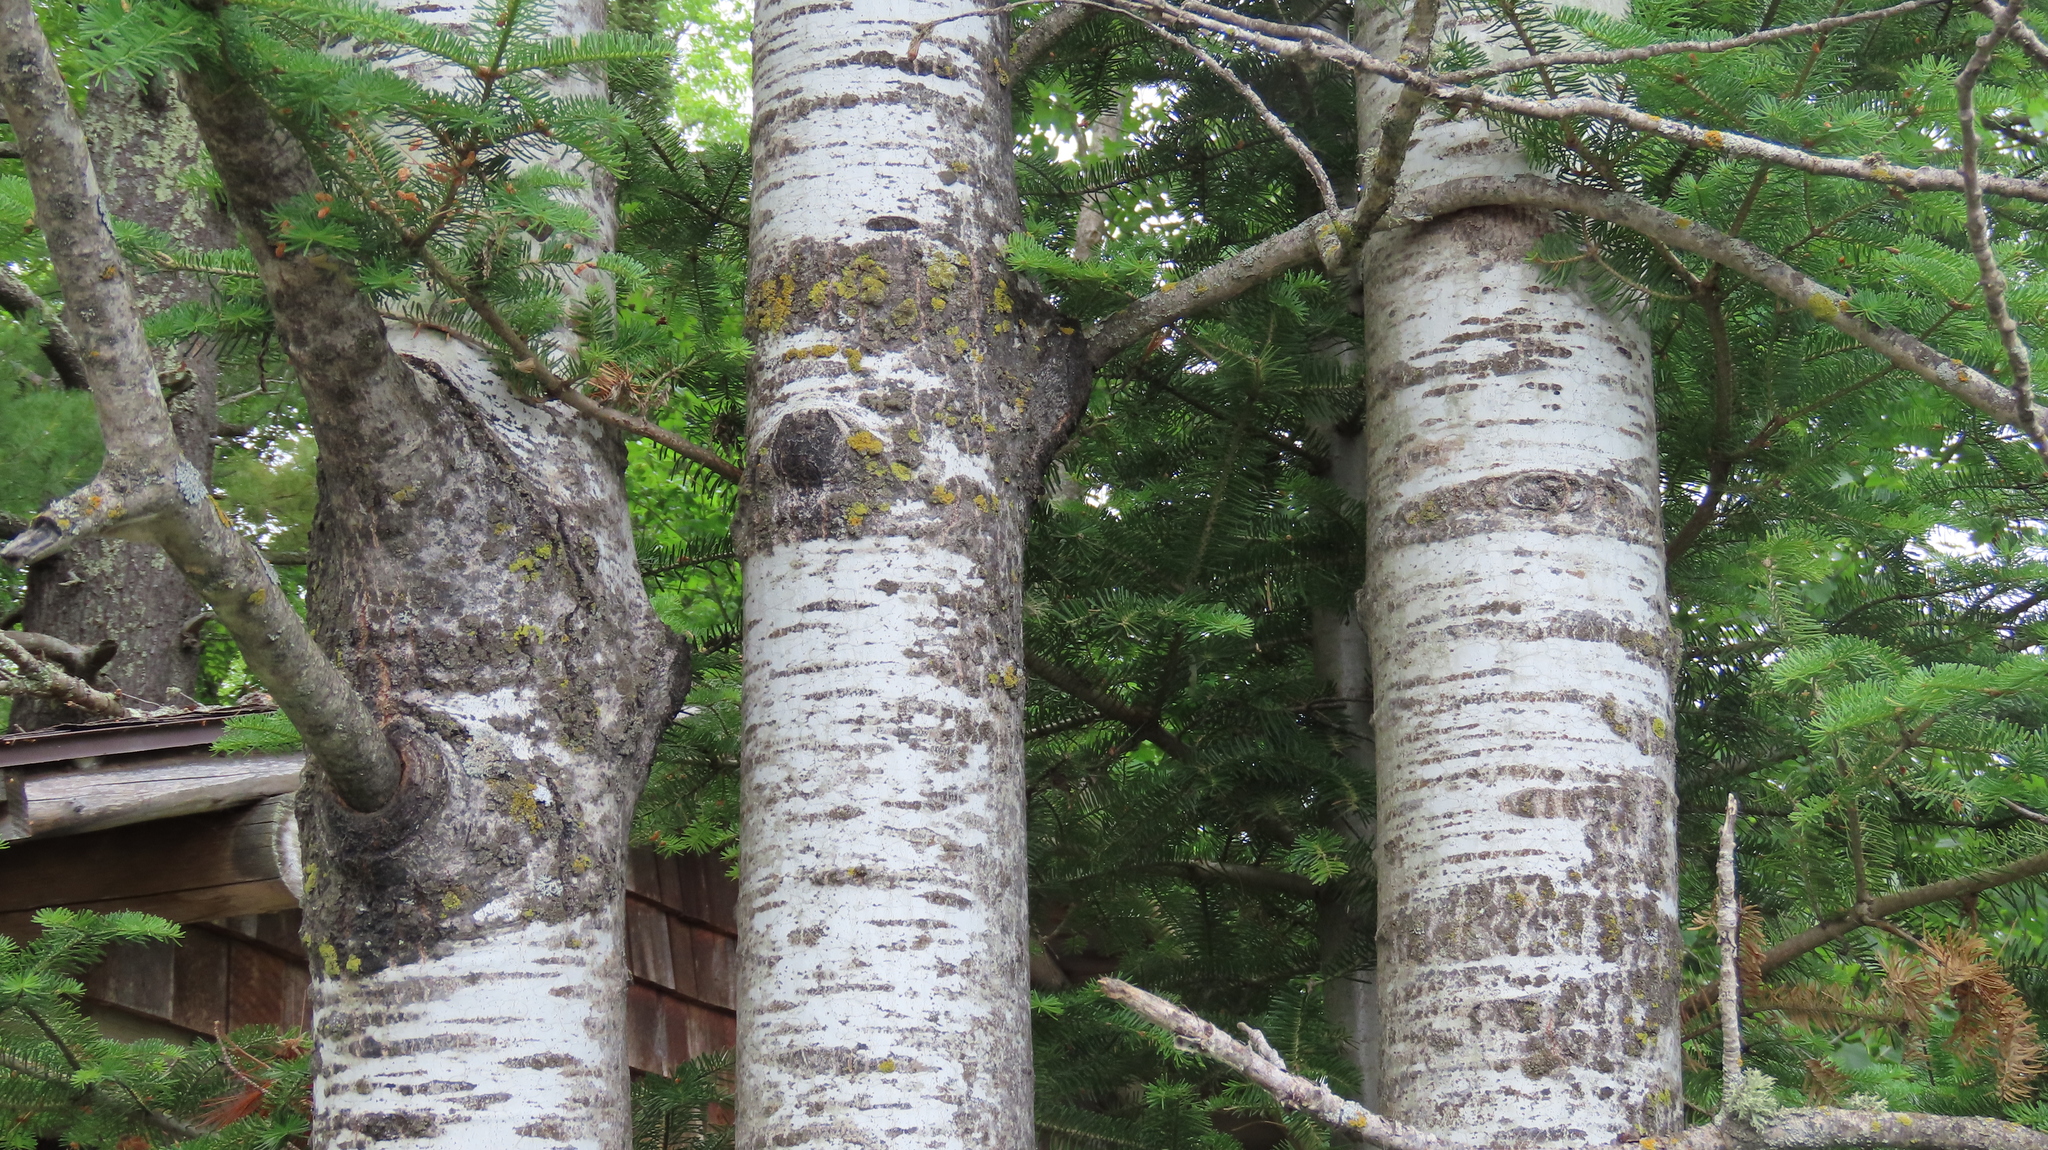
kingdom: Plantae
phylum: Tracheophyta
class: Magnoliopsida
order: Malpighiales
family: Salicaceae
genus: Populus
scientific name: Populus tremuloides
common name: Quaking aspen
